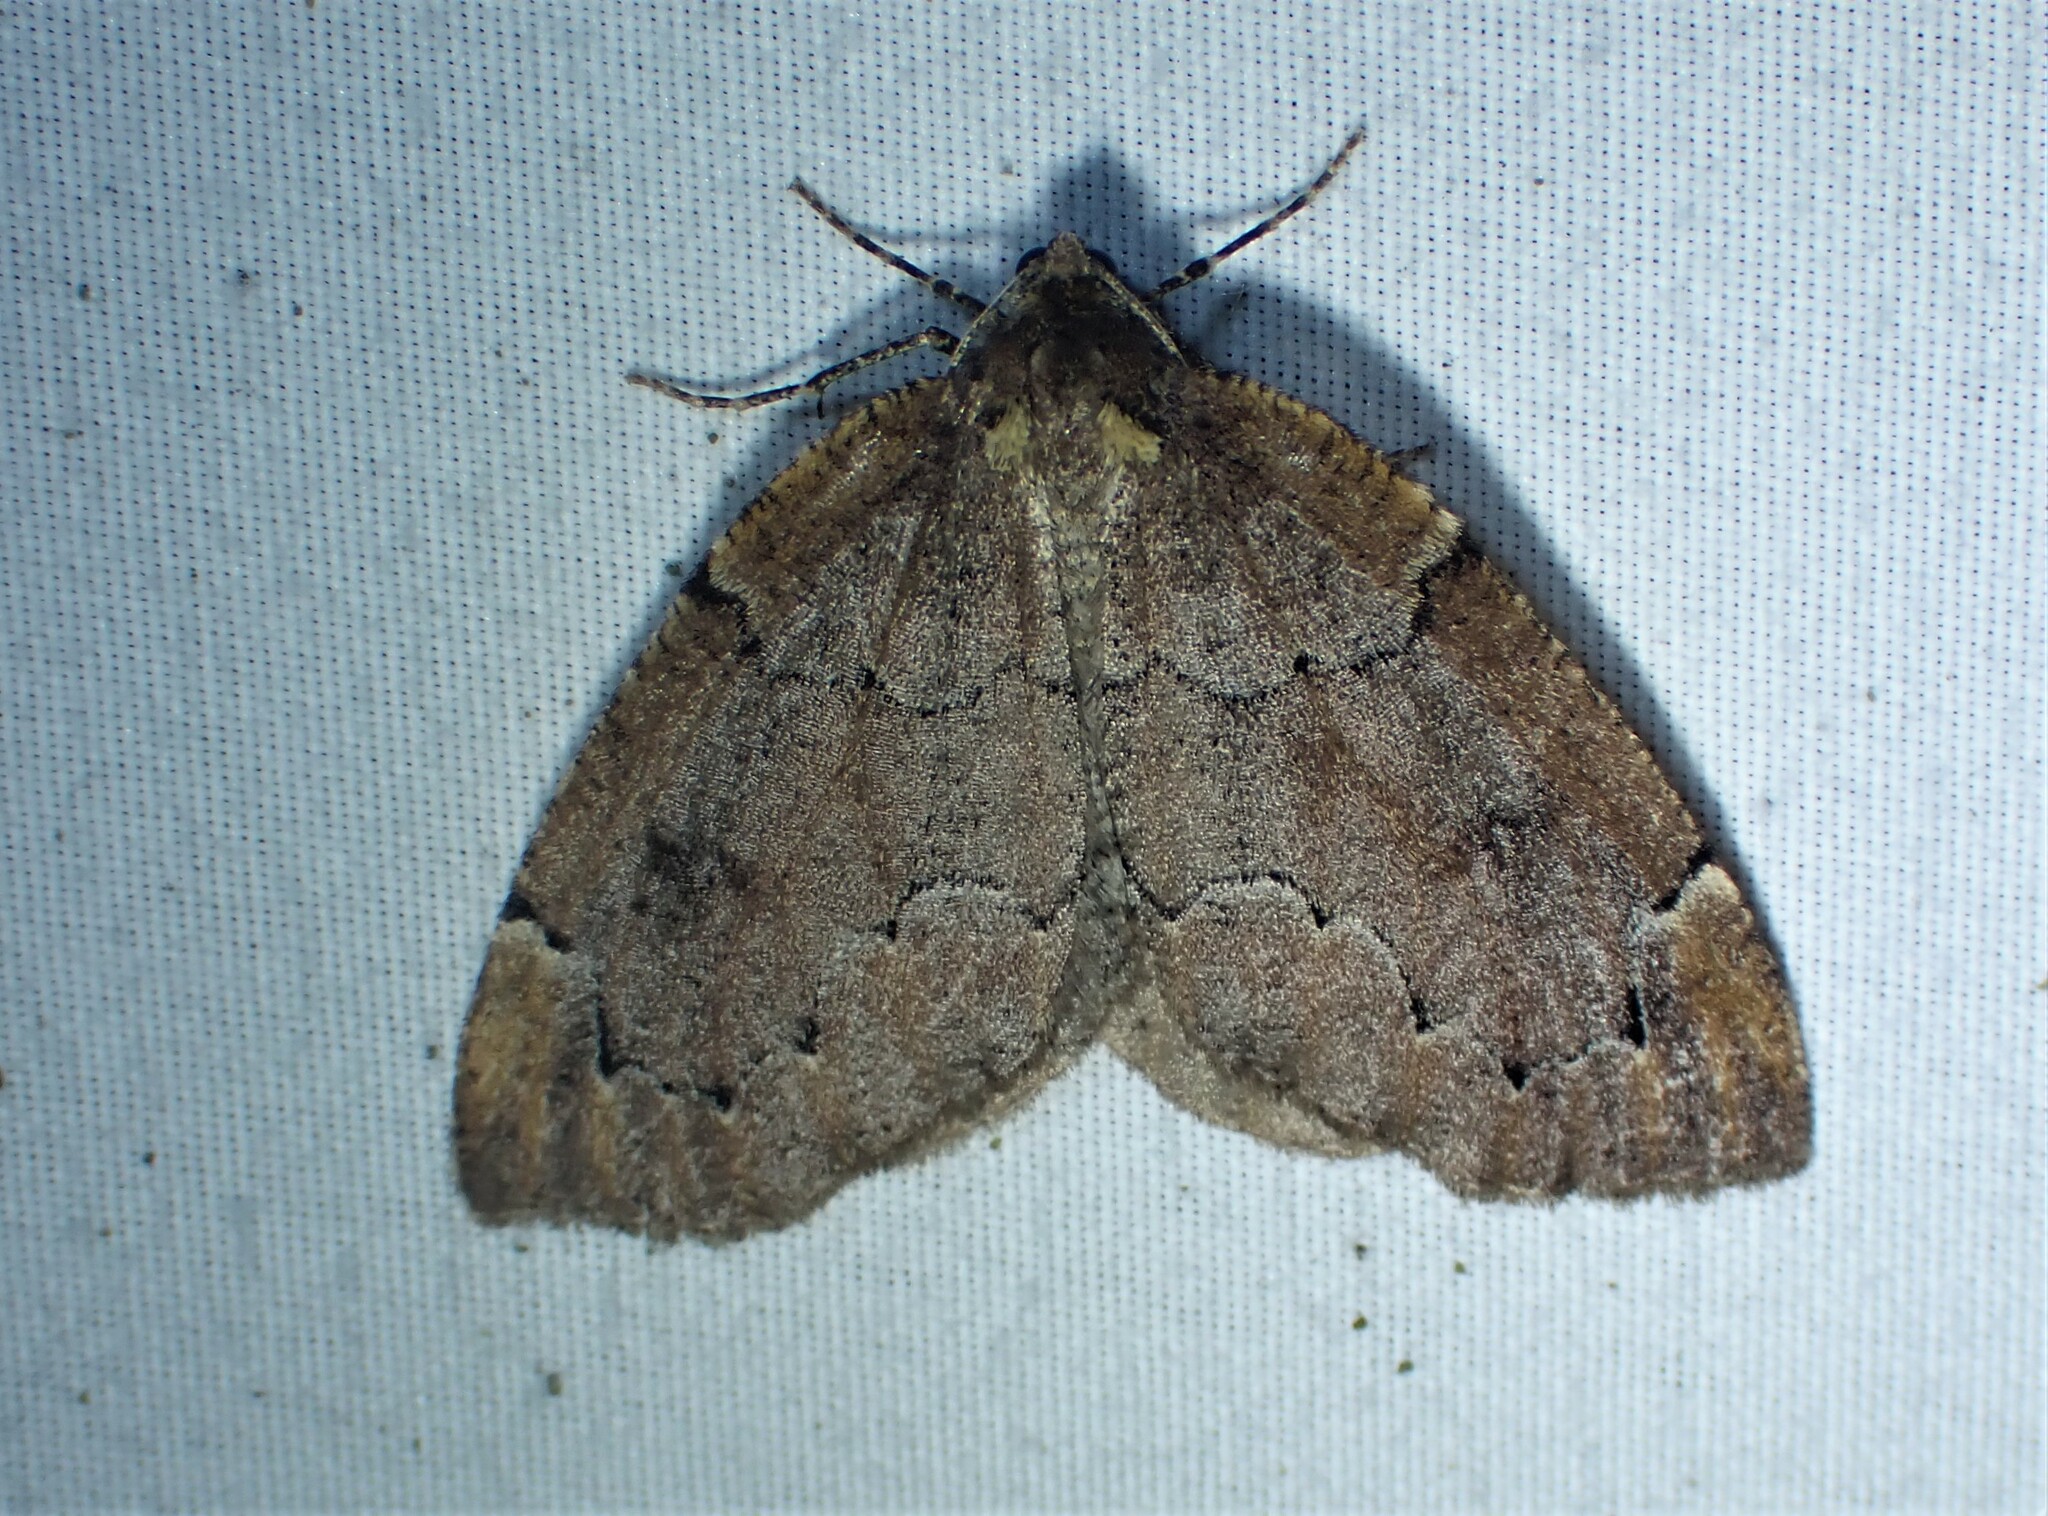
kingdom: Animalia
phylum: Arthropoda
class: Insecta
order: Lepidoptera
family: Geometridae
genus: Spodolepis
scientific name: Spodolepis substriataria
